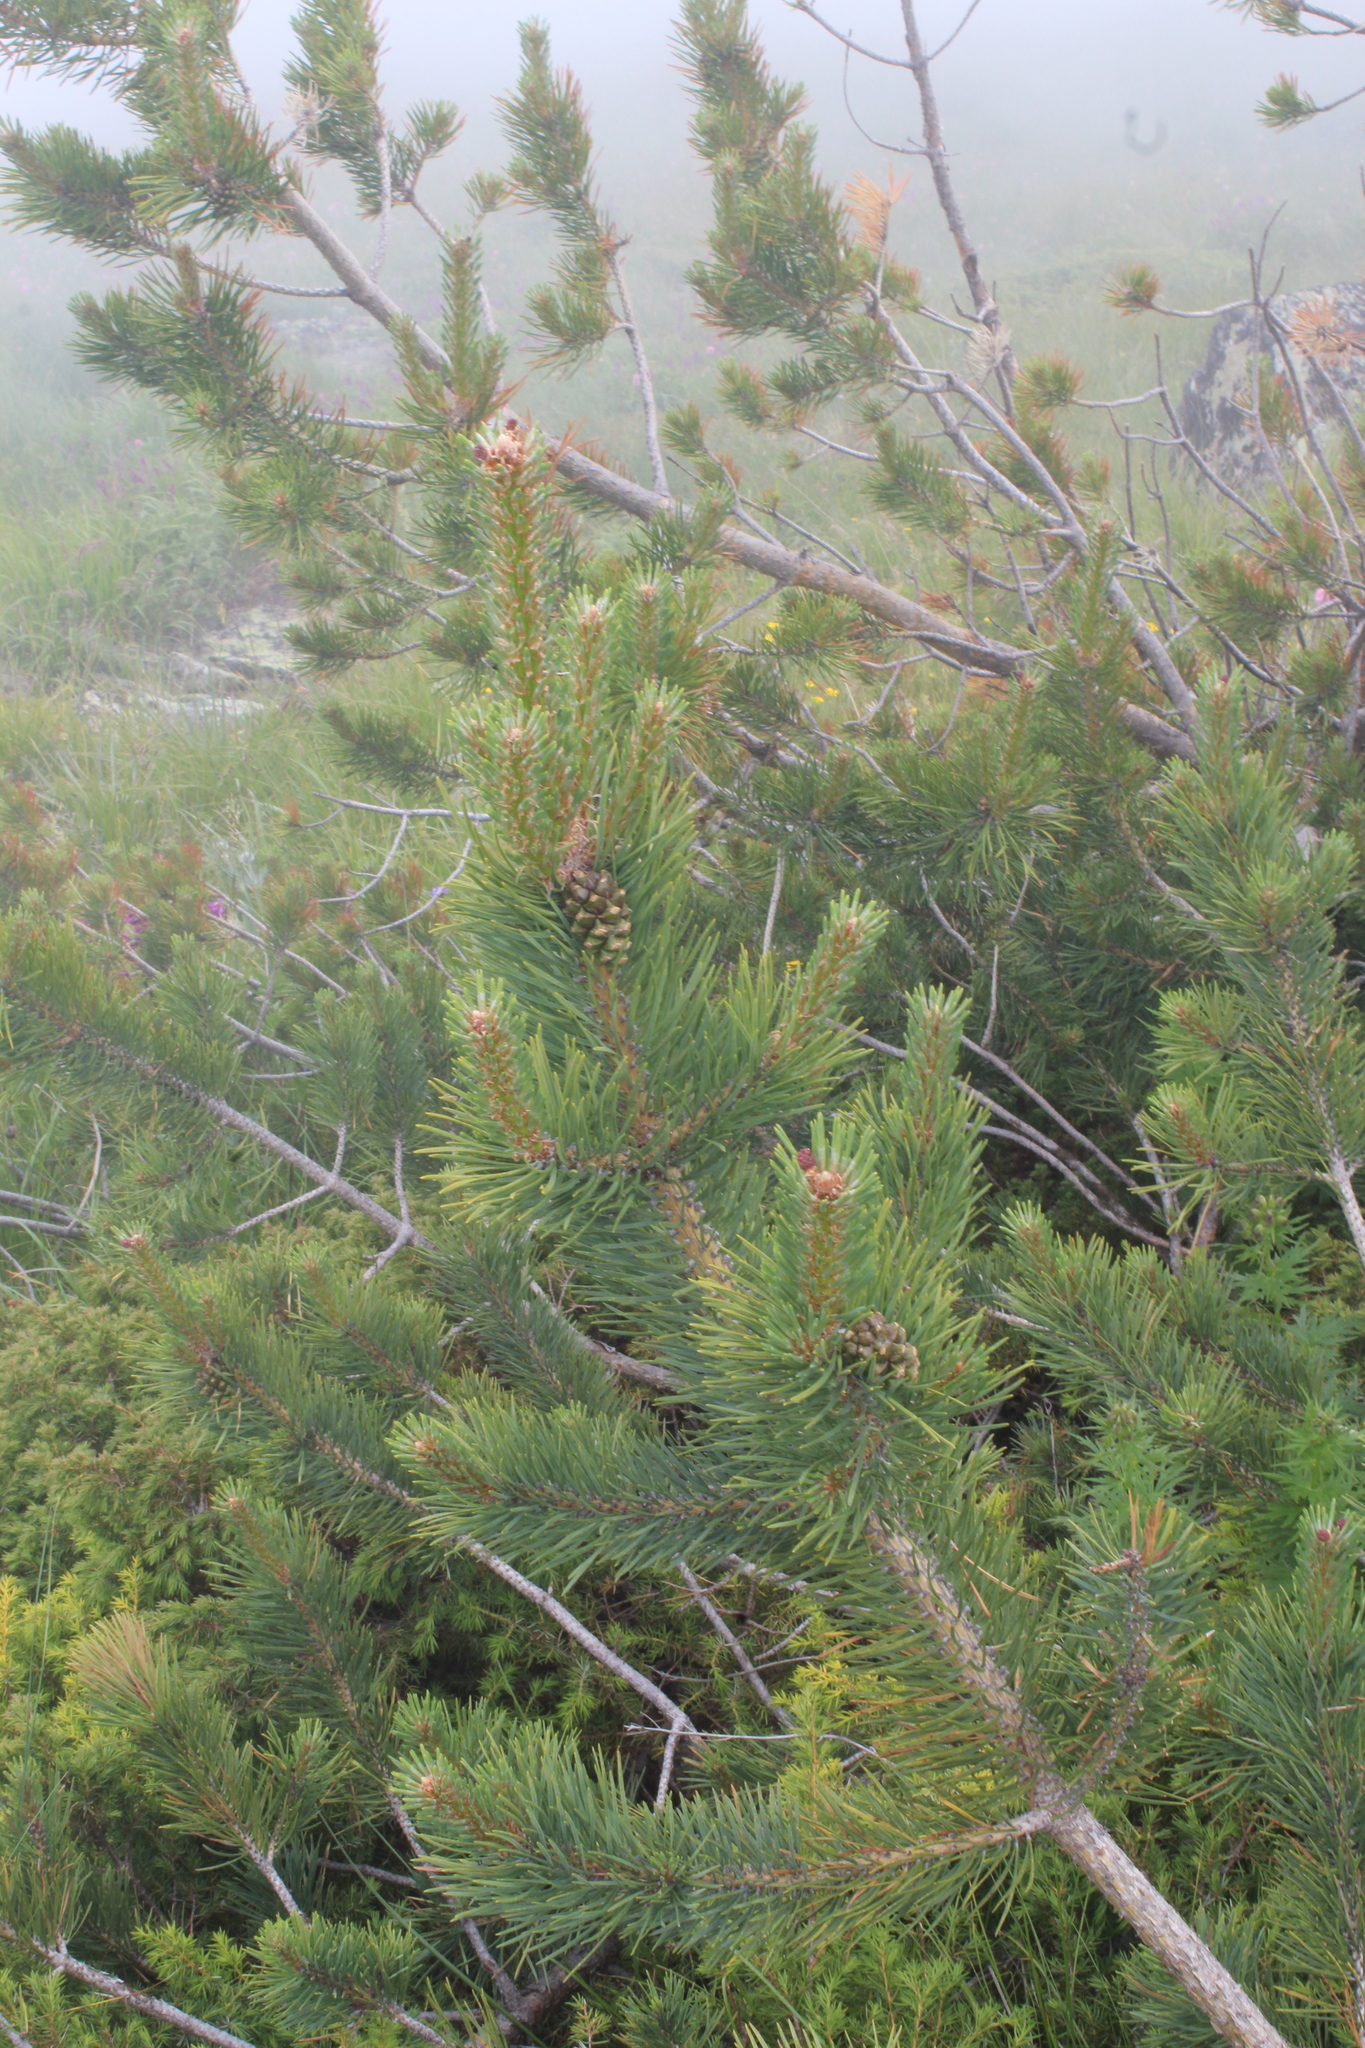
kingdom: Plantae
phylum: Tracheophyta
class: Pinopsida
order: Pinales
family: Pinaceae
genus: Pinus
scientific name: Pinus sylvestris
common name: Scots pine
